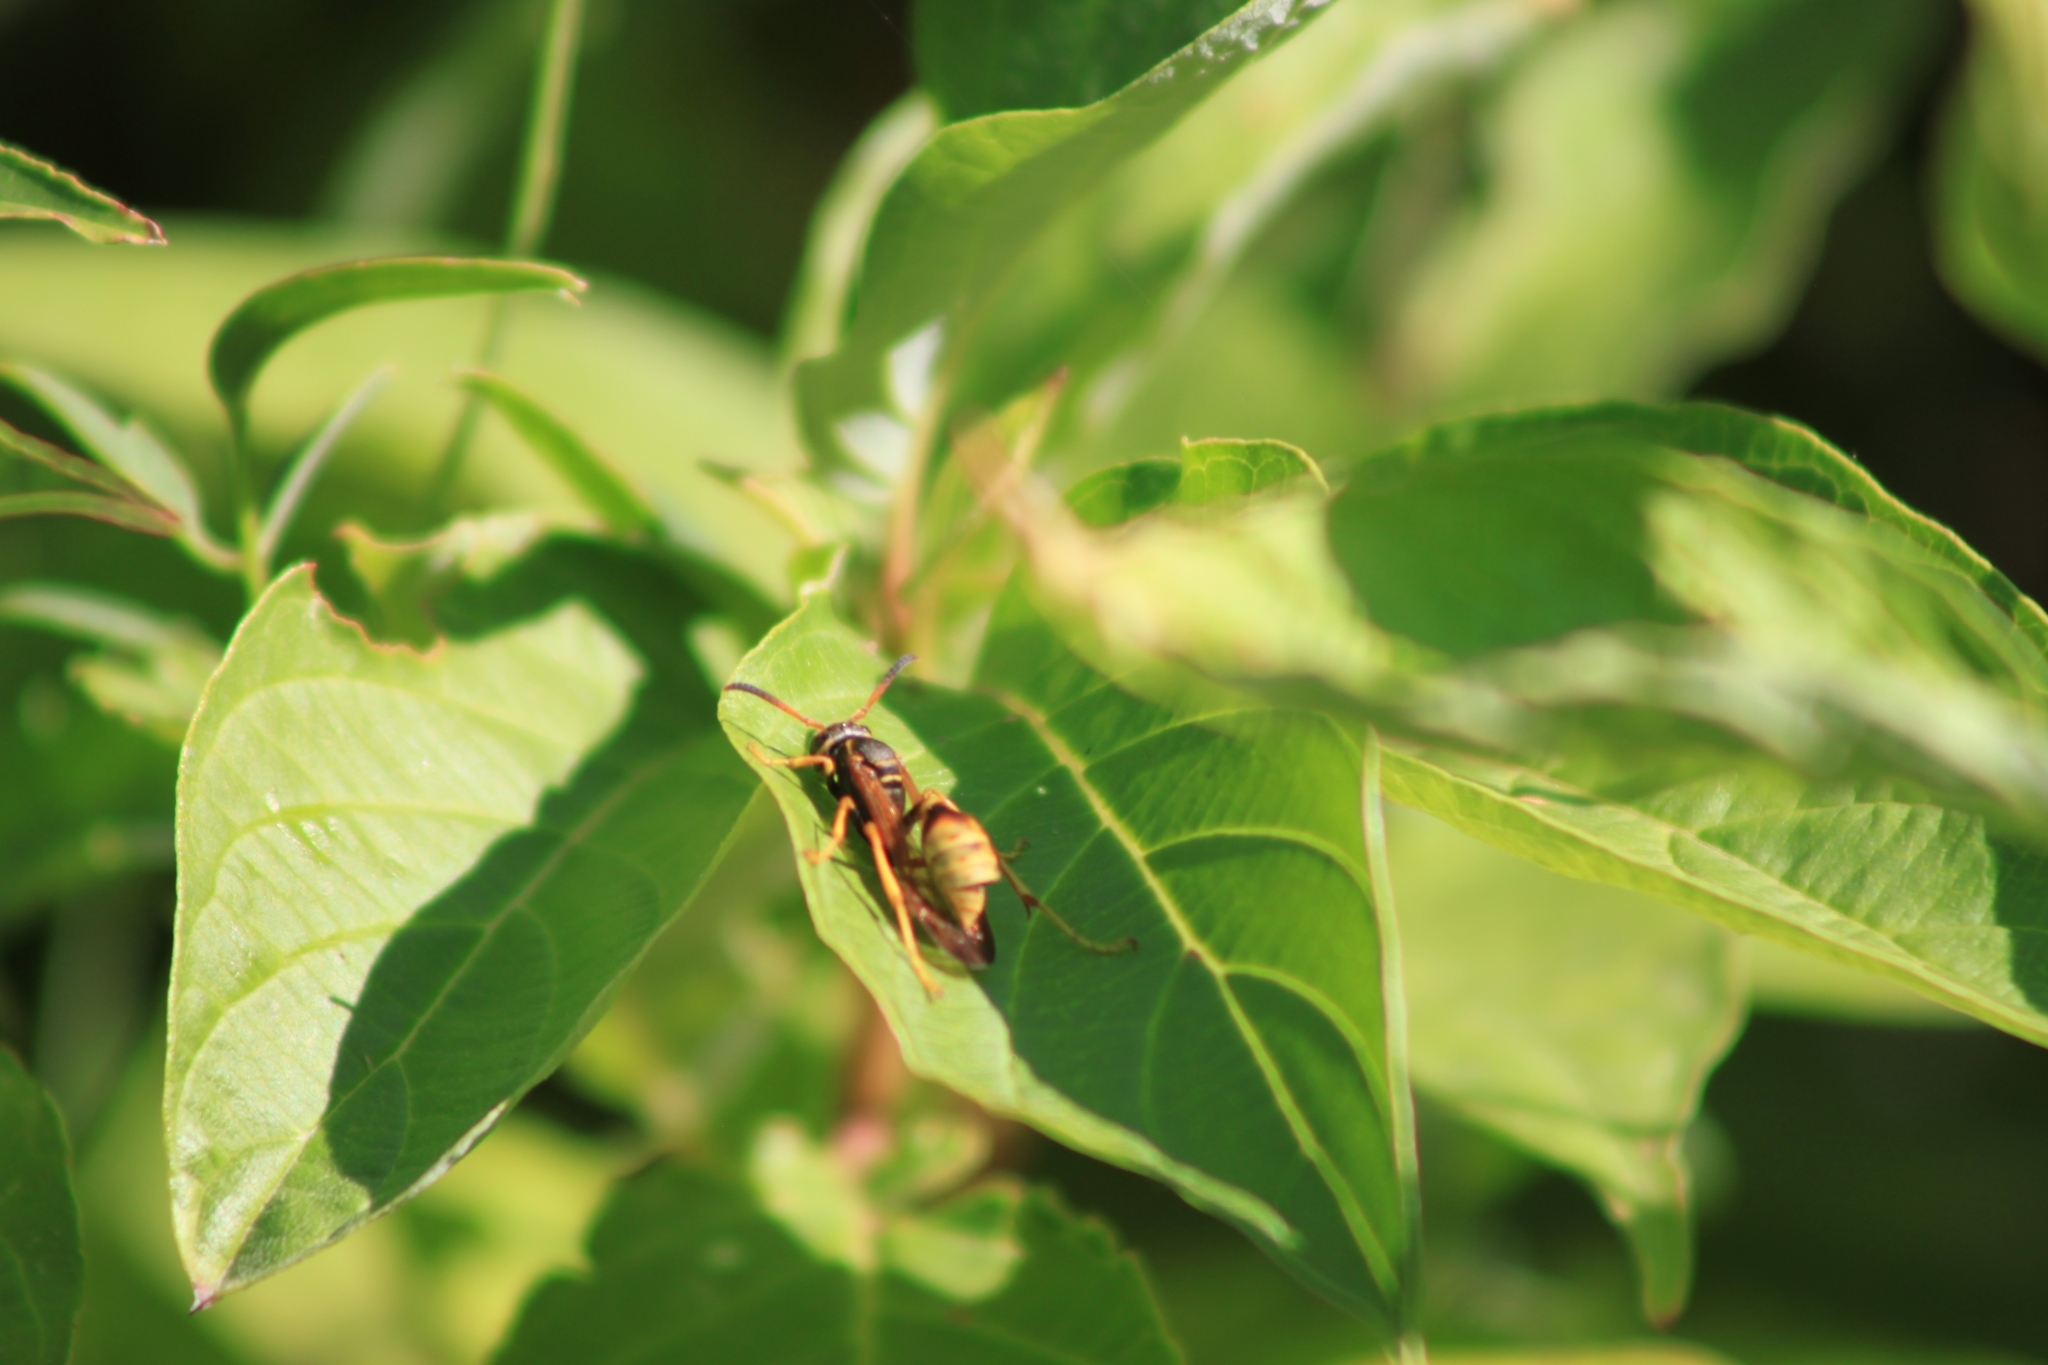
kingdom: Animalia
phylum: Arthropoda
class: Insecta
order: Hymenoptera
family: Vespidae
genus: Mischocyttarus
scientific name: Mischocyttarus flavitarsis
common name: Wasp
